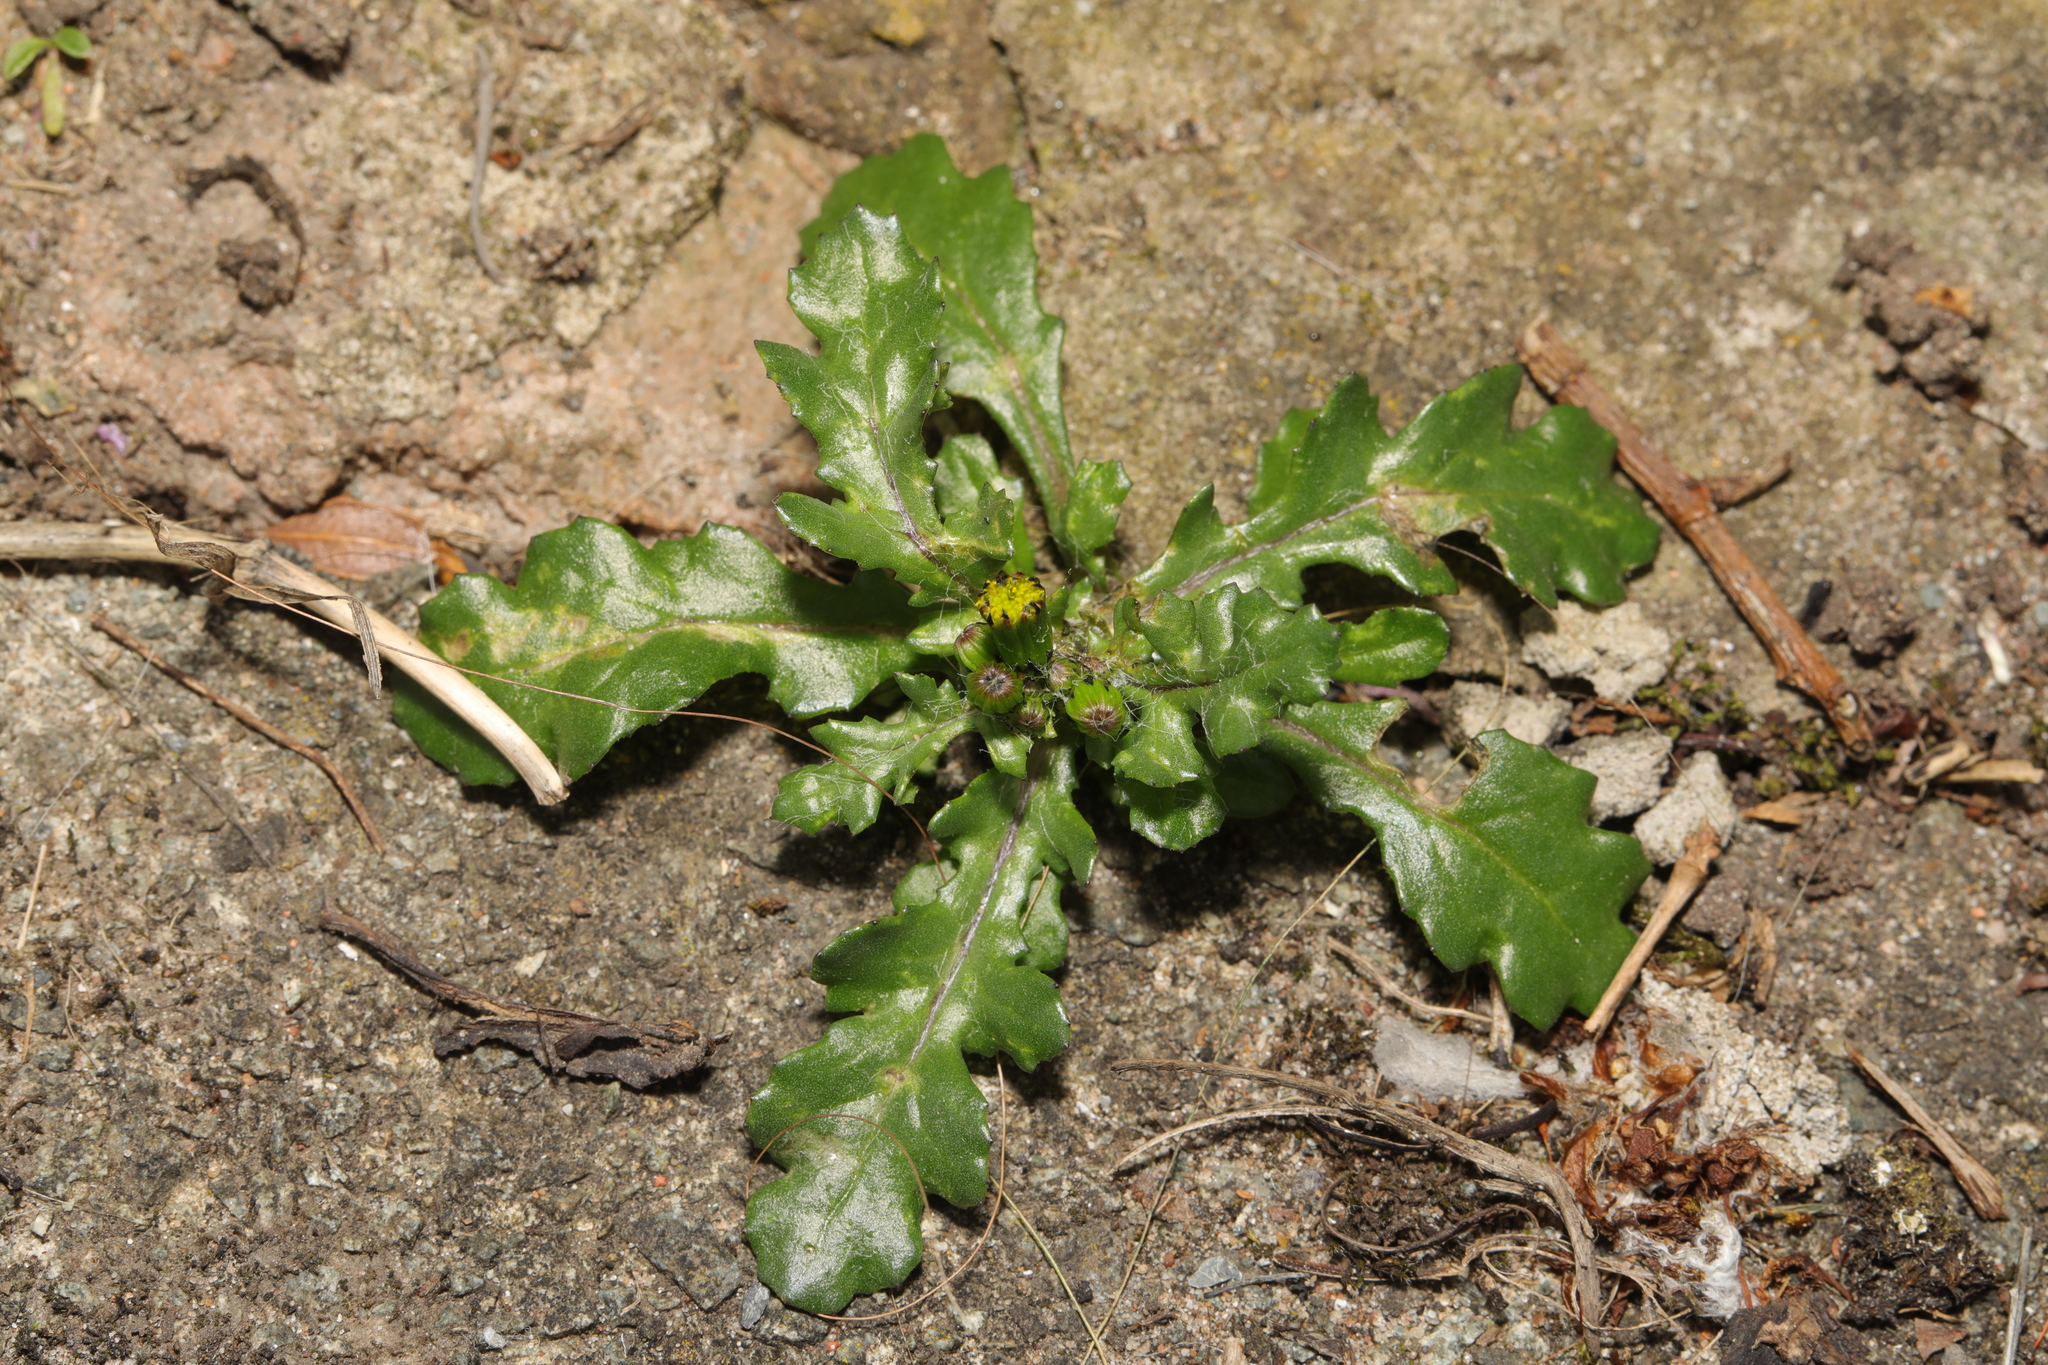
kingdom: Plantae
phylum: Tracheophyta
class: Magnoliopsida
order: Asterales
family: Asteraceae
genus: Senecio
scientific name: Senecio vulgaris
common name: Old-man-in-the-spring
